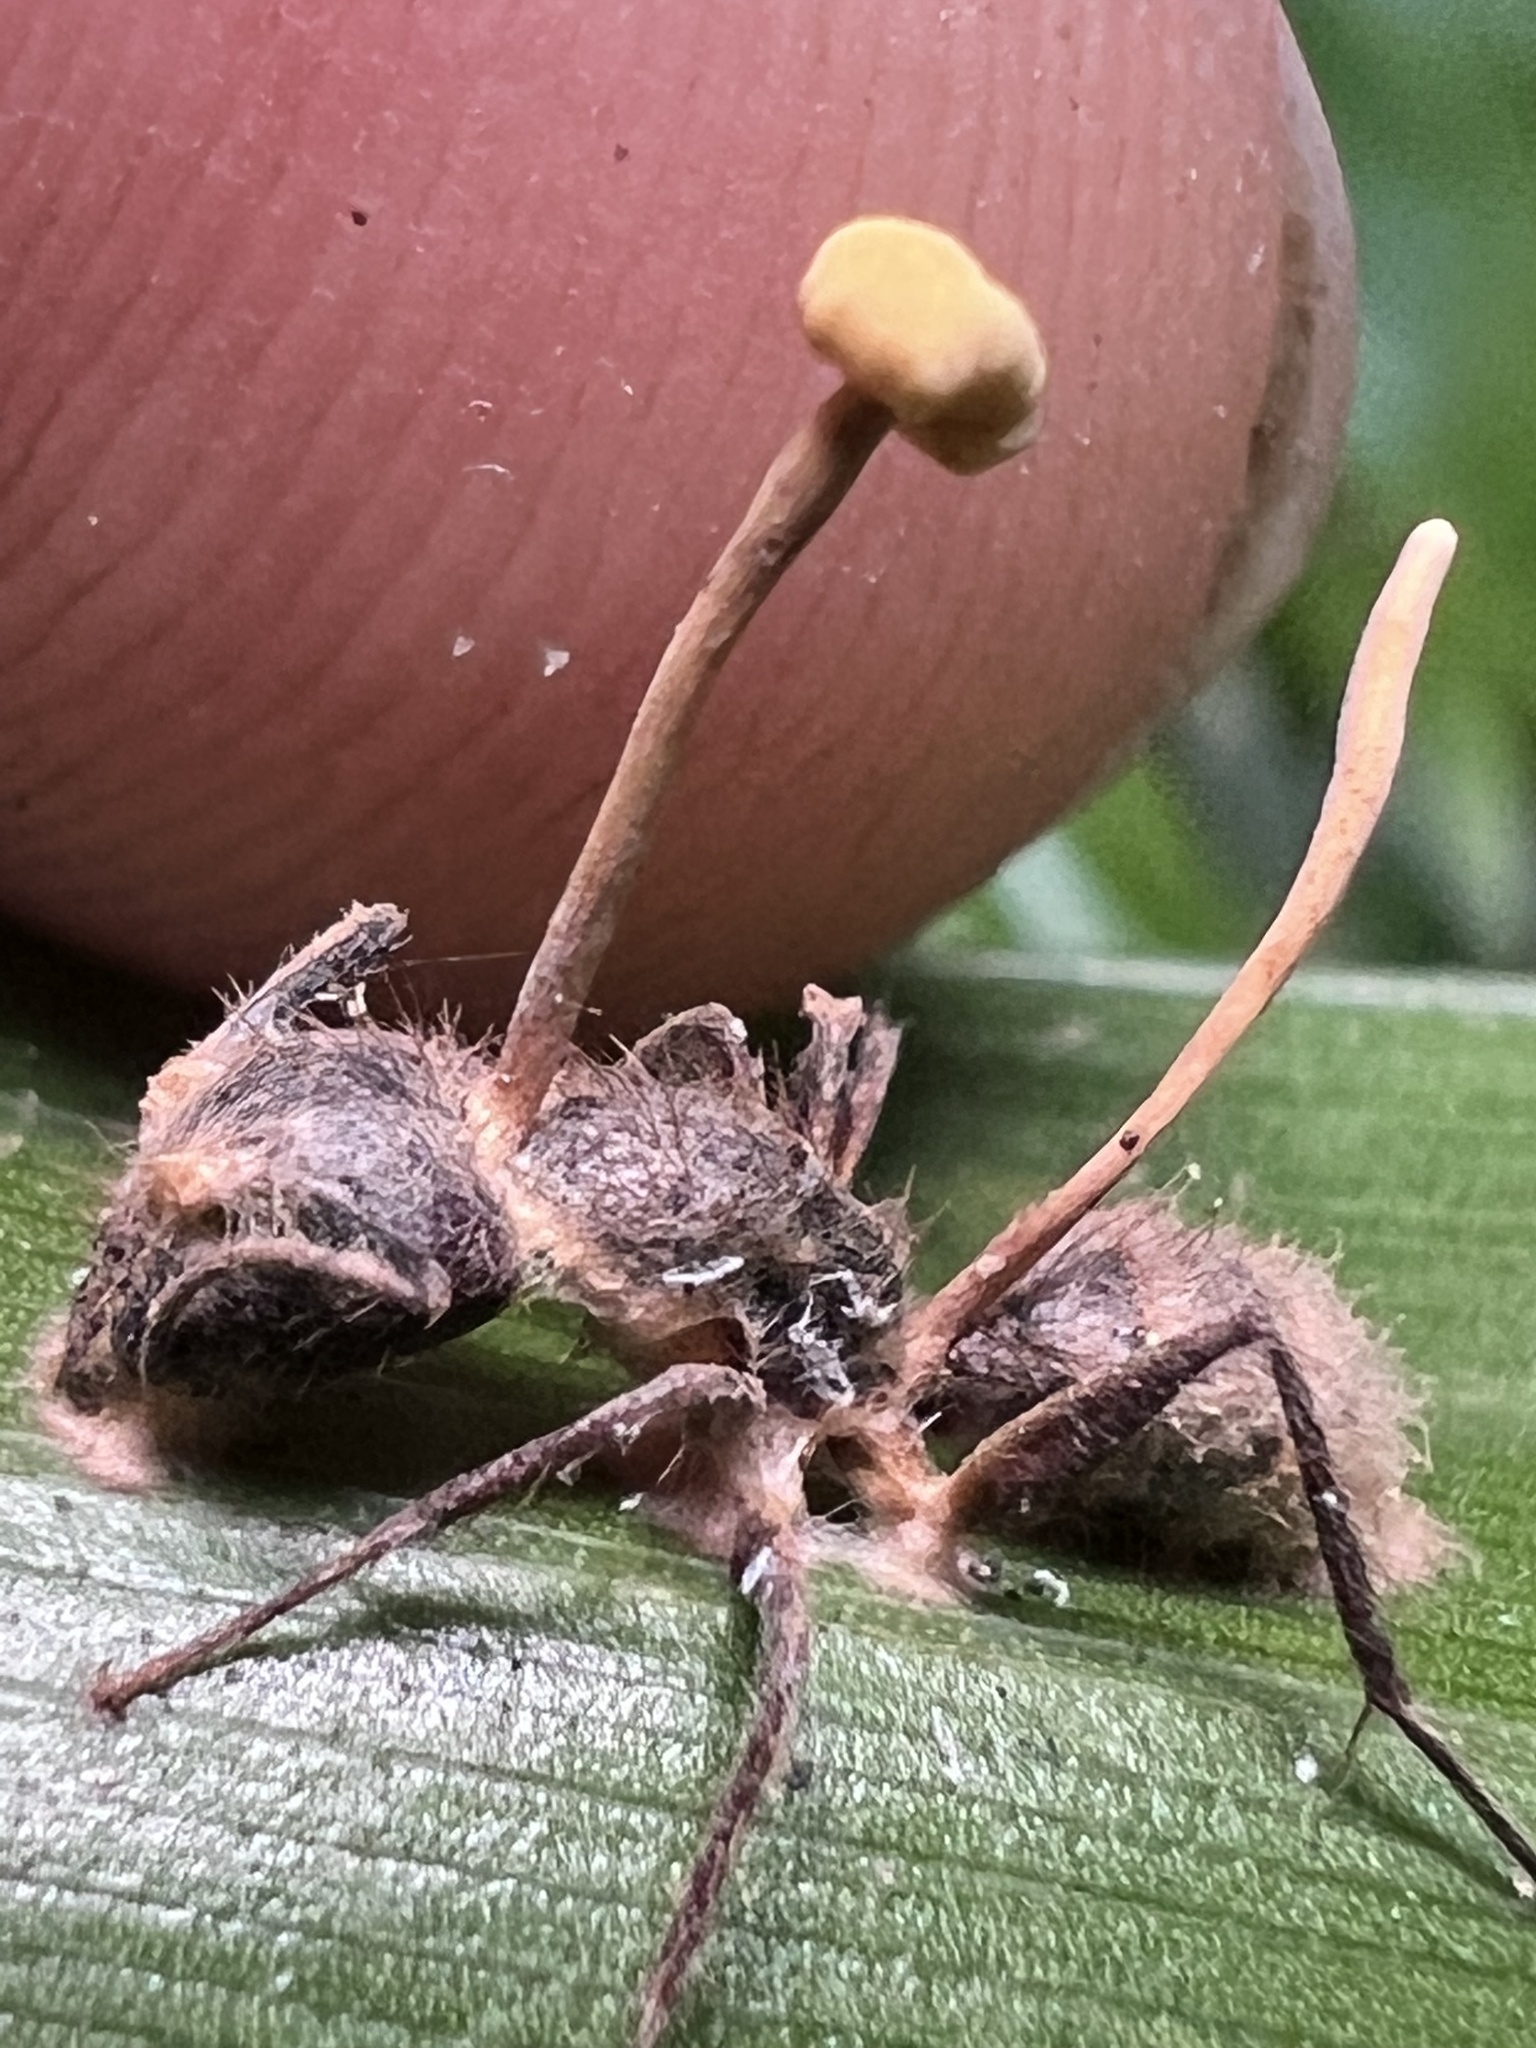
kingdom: Fungi
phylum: Ascomycota
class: Sordariomycetes
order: Hypocreales
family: Ophiocordycipitaceae
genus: Ophiocordyceps
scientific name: Ophiocordyceps lloydii
